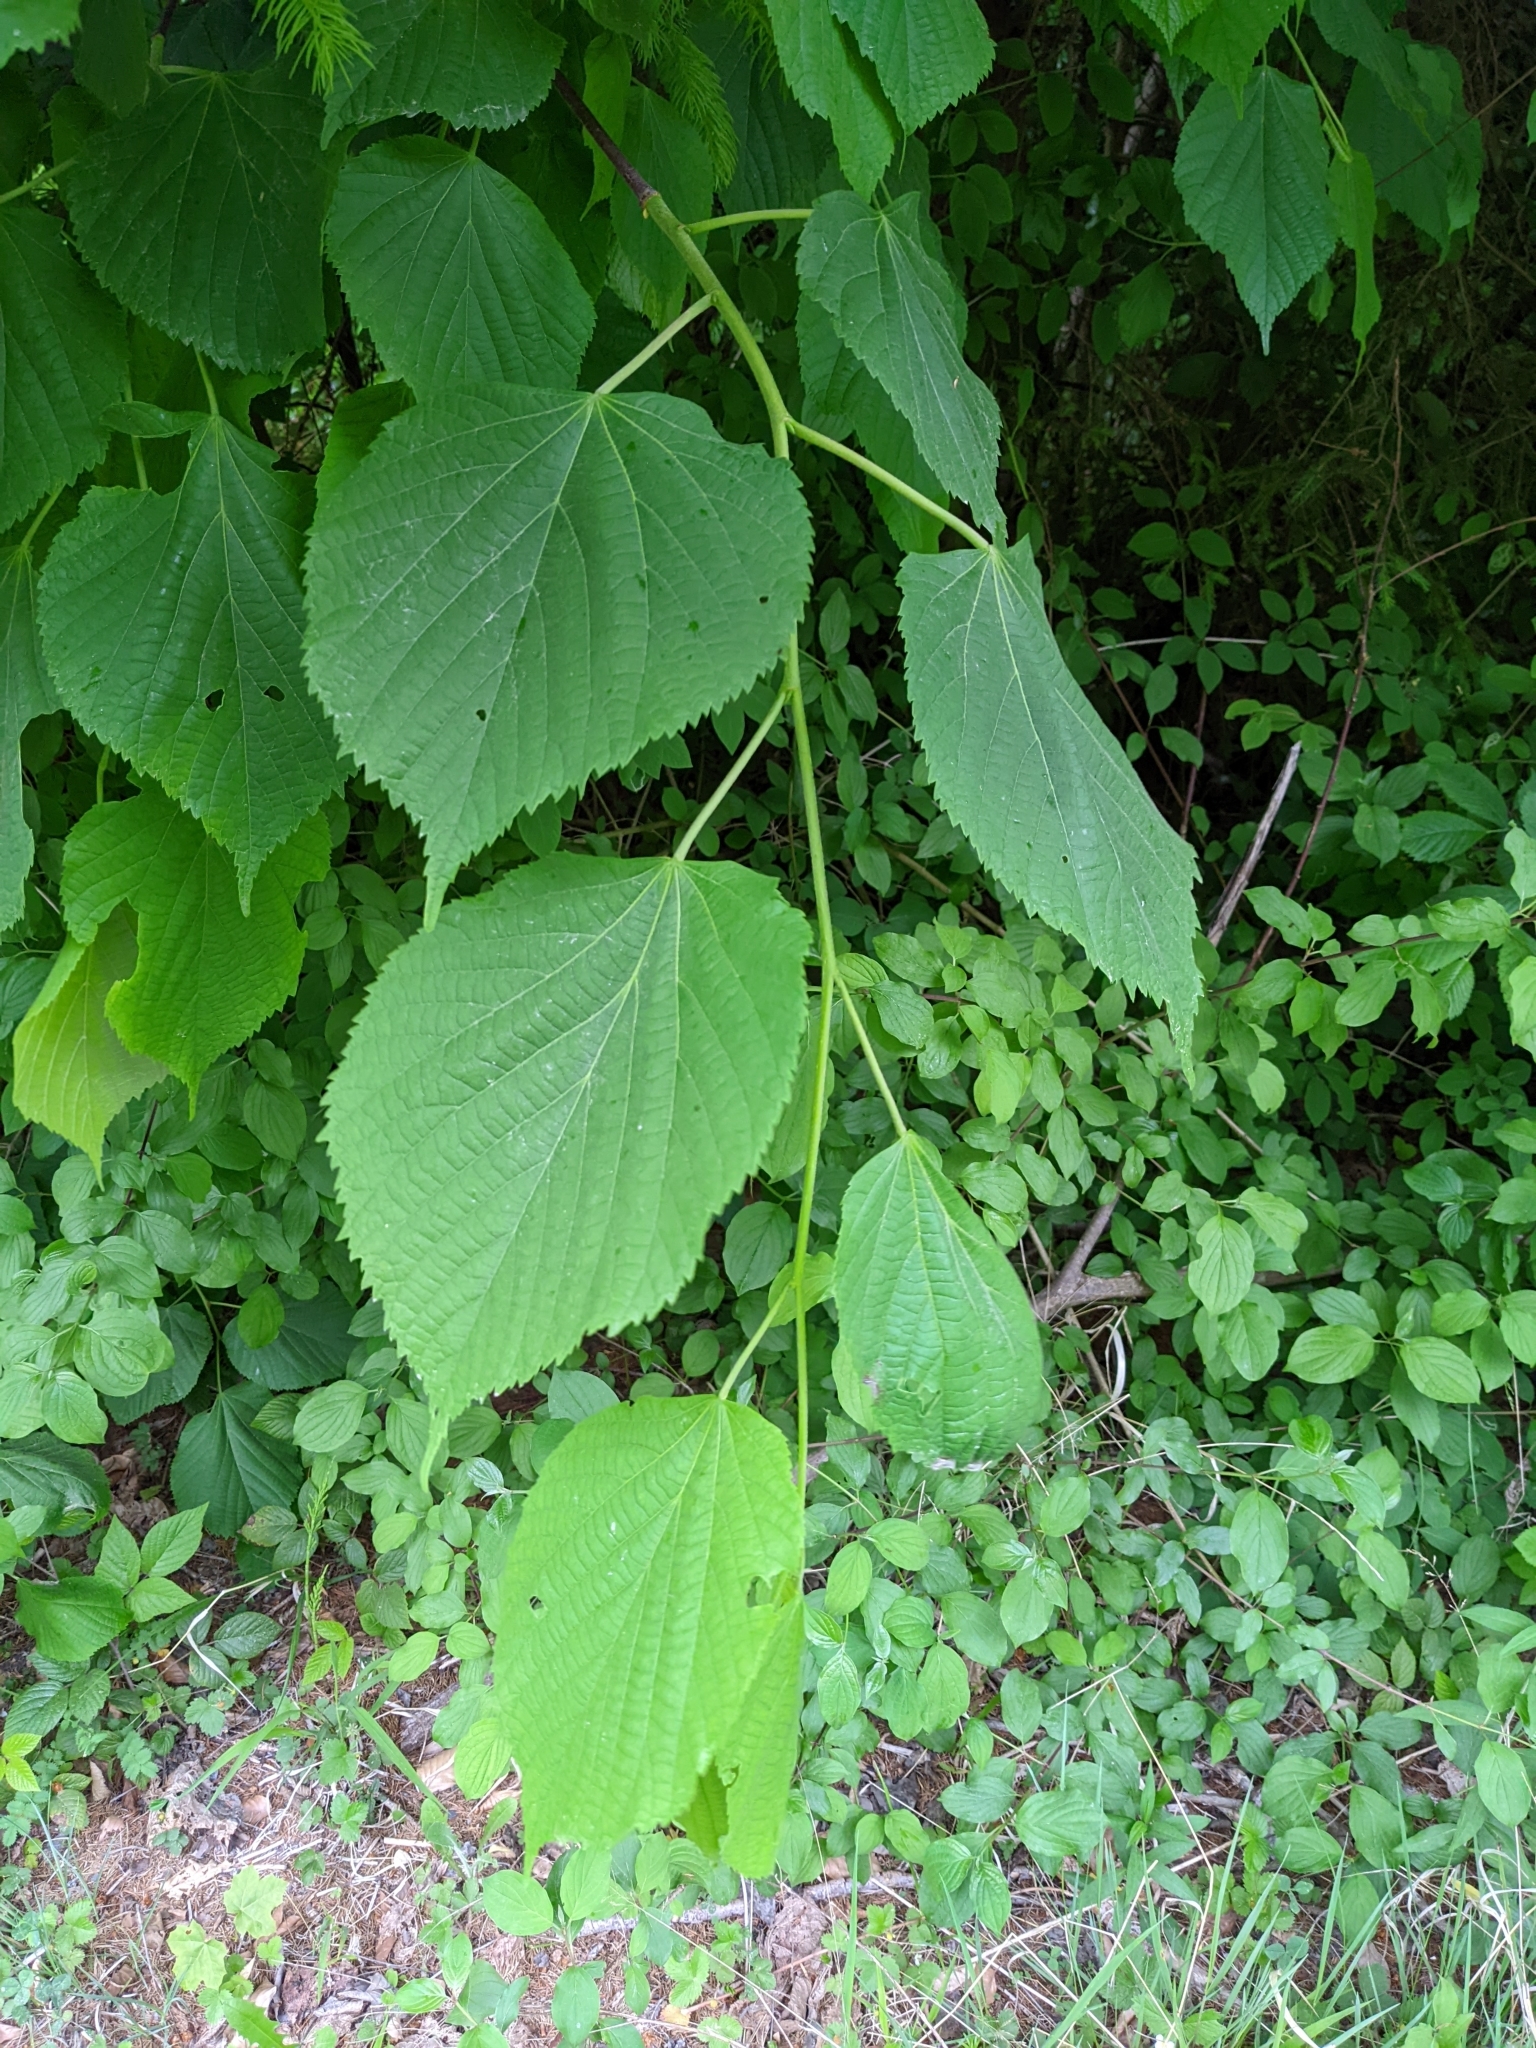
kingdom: Plantae
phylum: Tracheophyta
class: Magnoliopsida
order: Malvales
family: Malvaceae
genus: Tilia
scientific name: Tilia platyphyllos
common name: Large-leaved lime
